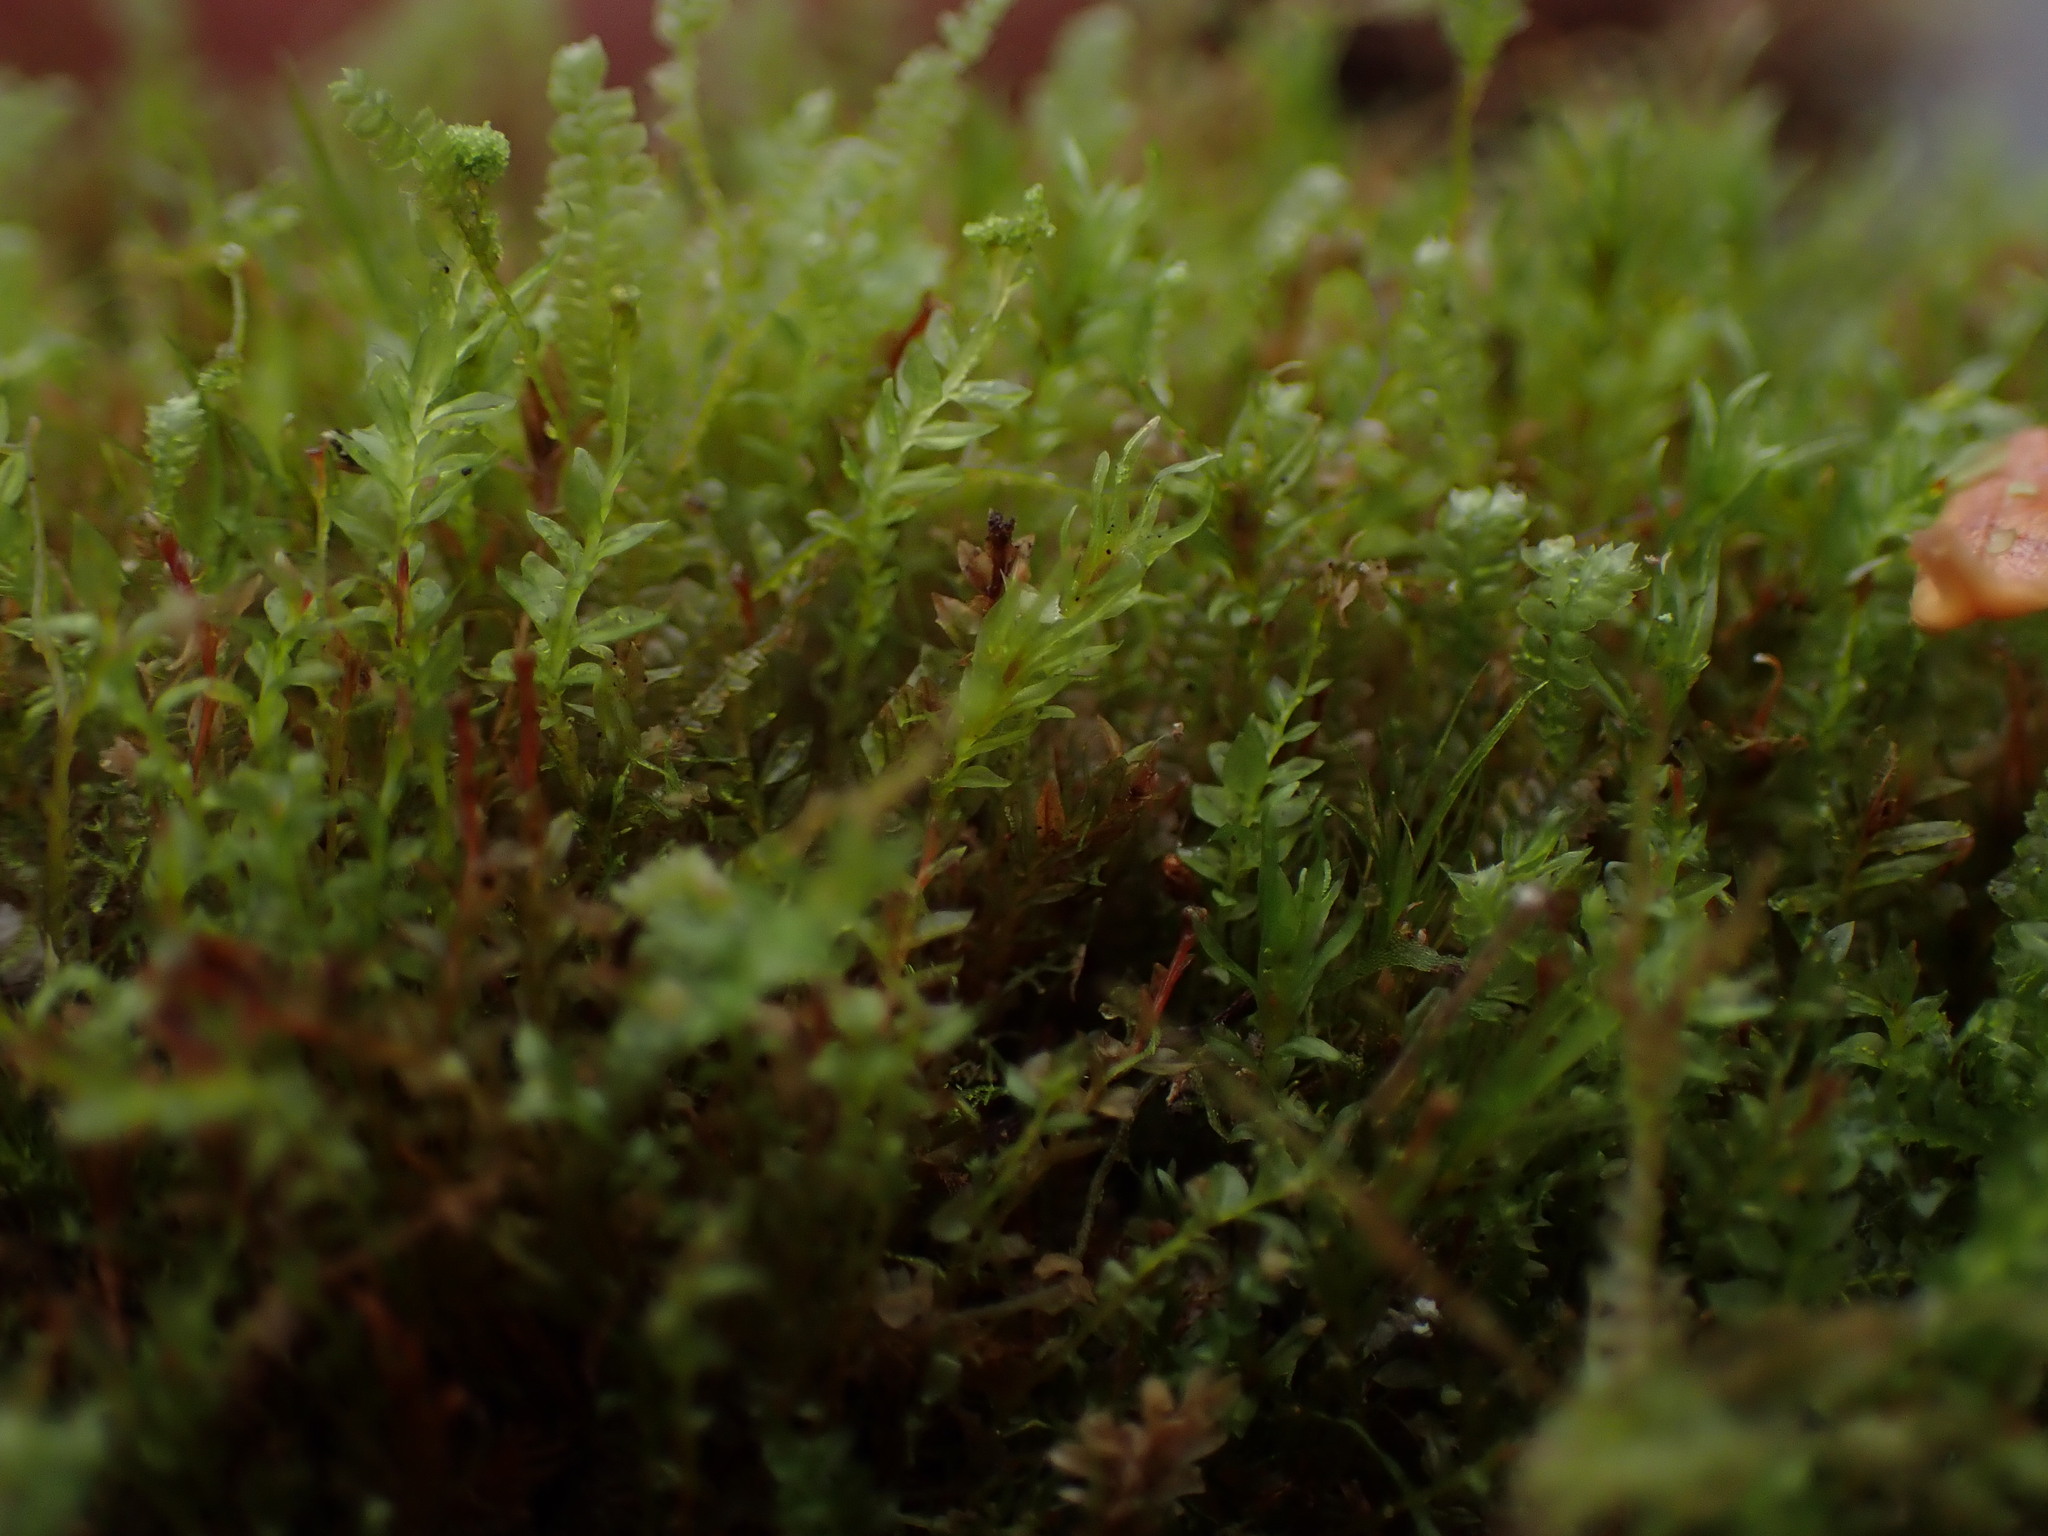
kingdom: Plantae
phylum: Bryophyta
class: Polytrichopsida
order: Tetraphidales
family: Tetraphidaceae
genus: Tetraphis
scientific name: Tetraphis pellucida
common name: Common four-toothed moss
